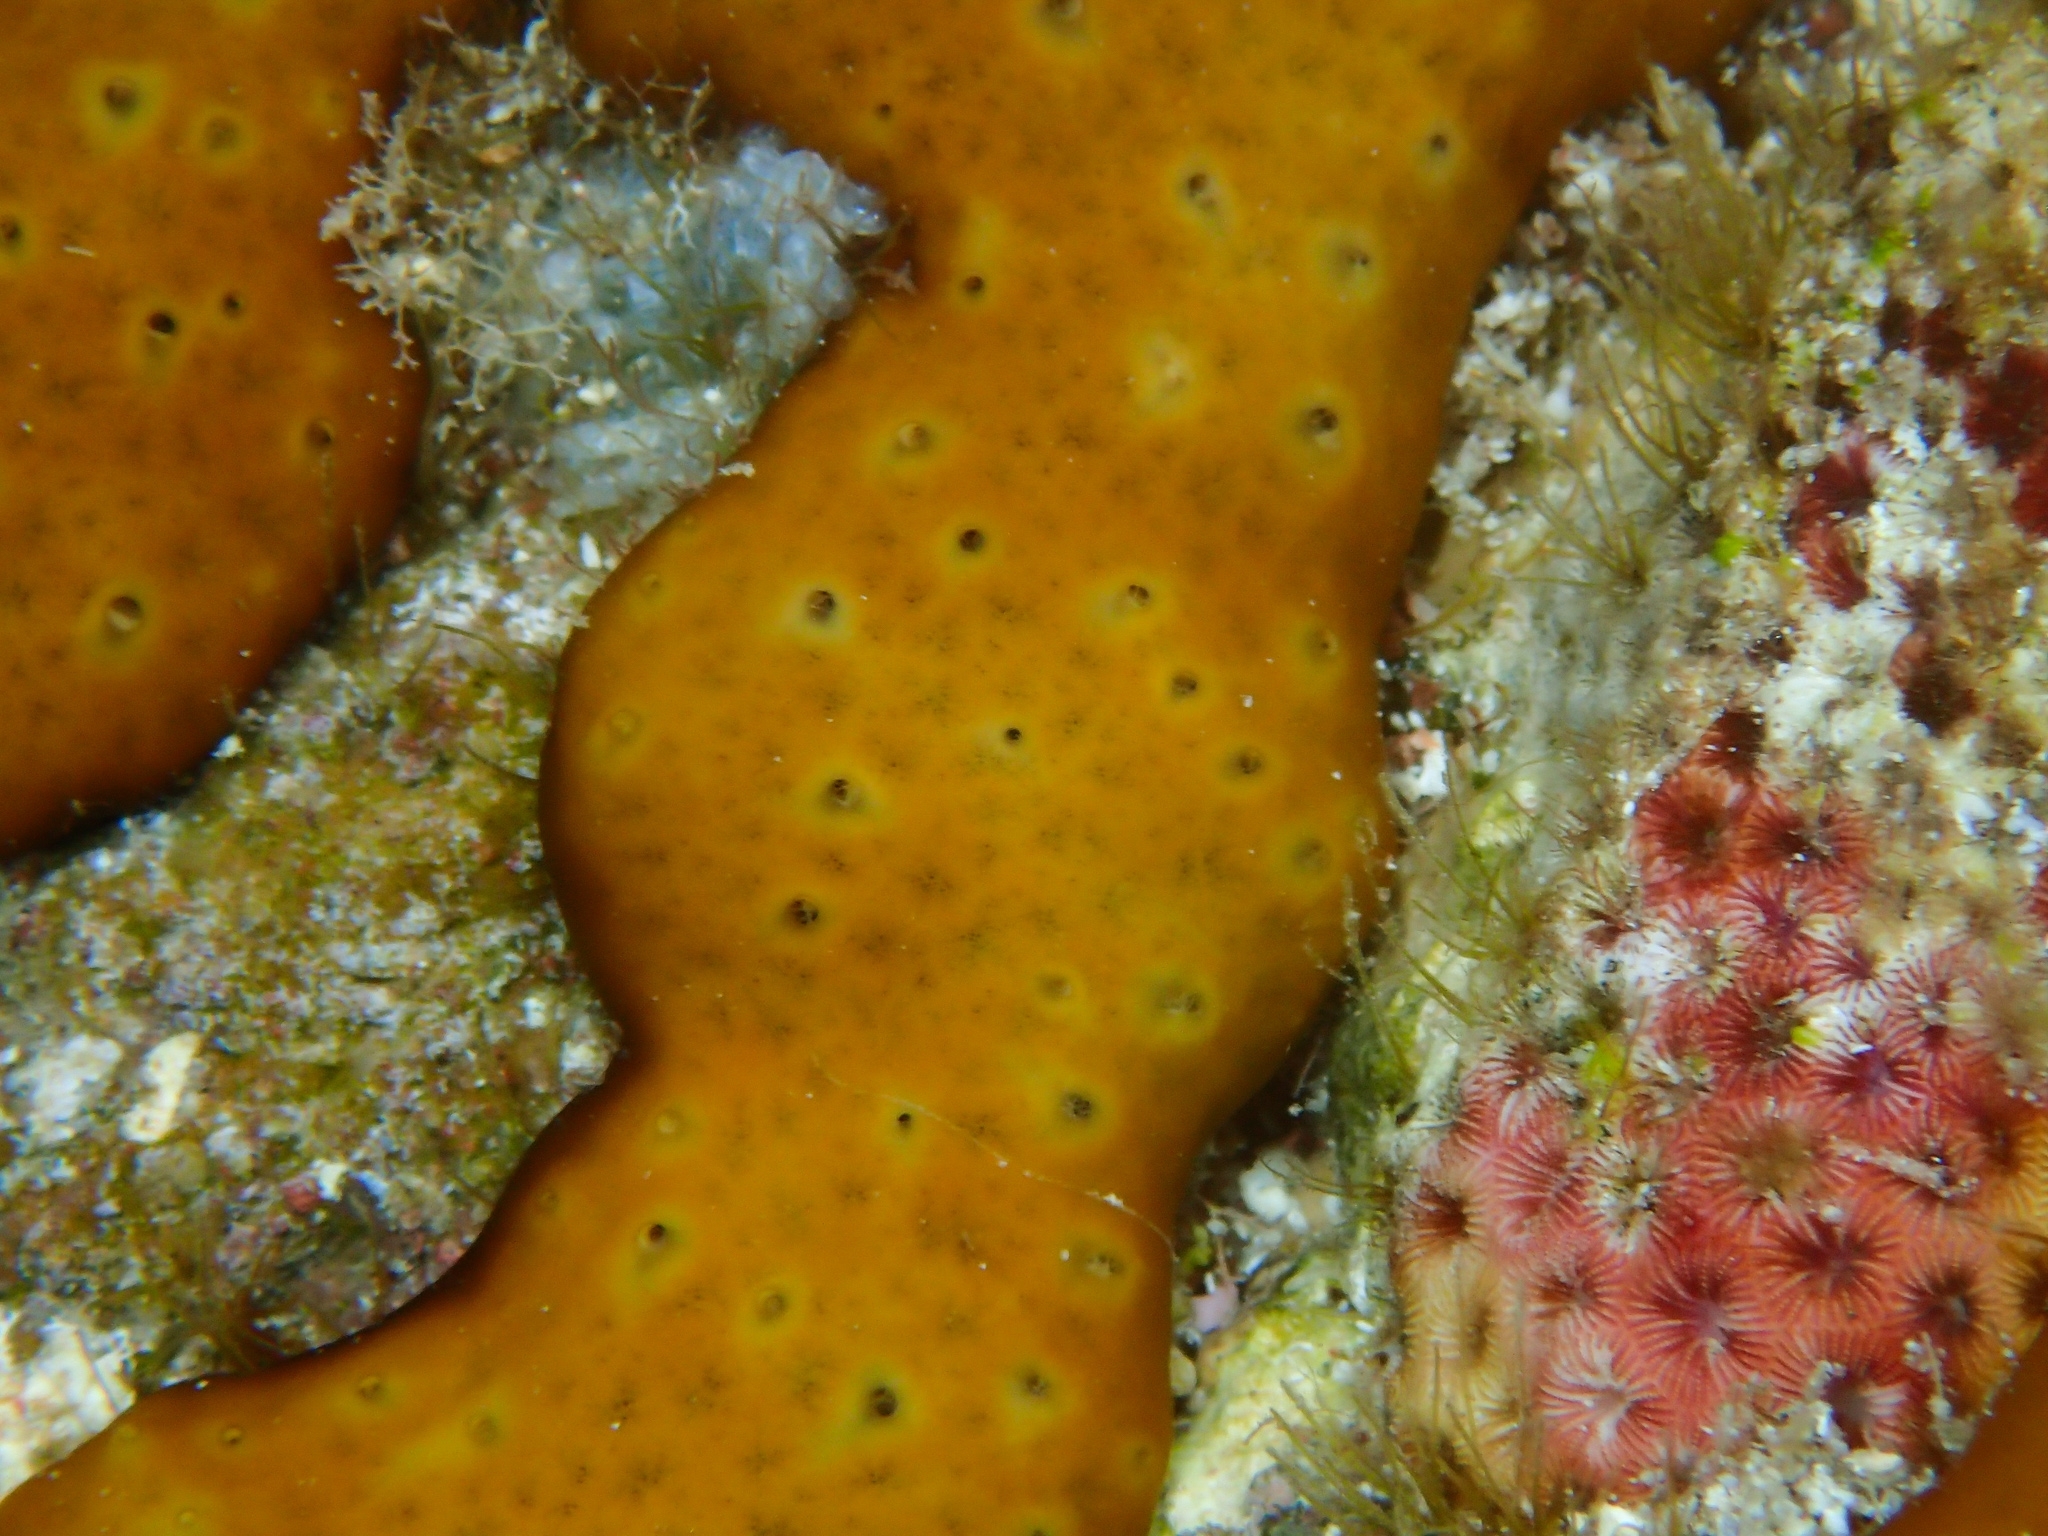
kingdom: Animalia
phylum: Porifera
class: Demospongiae
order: Chondrillida
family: Chondrillidae
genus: Chondrilla
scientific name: Chondrilla caribensis
